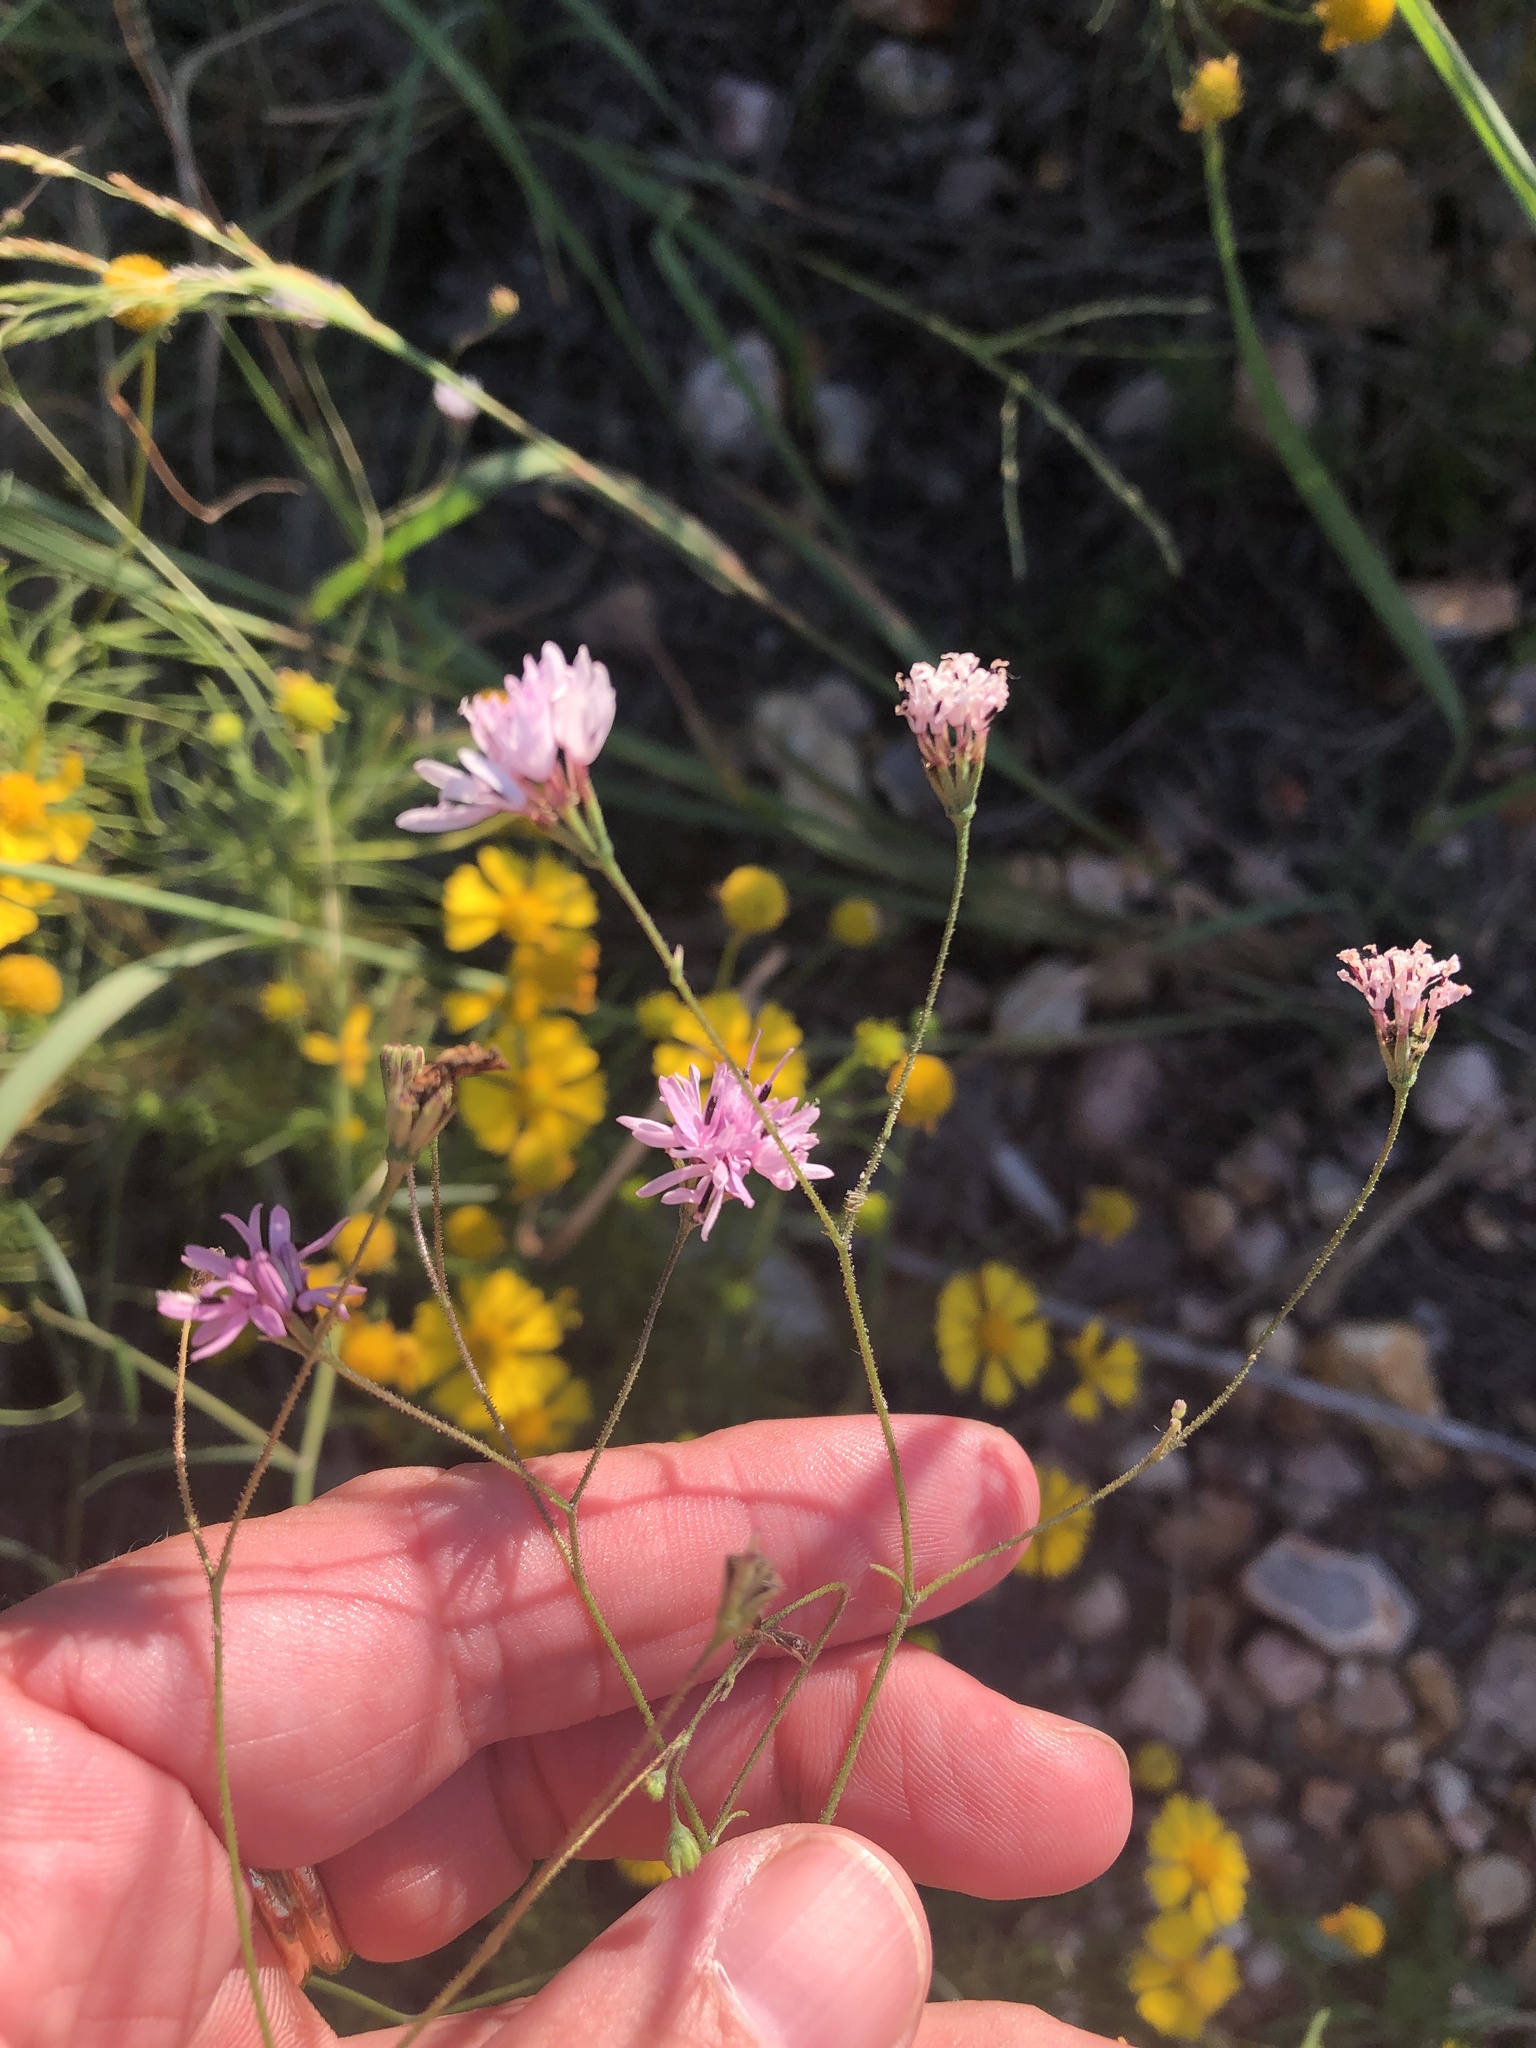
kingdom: Plantae
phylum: Tracheophyta
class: Magnoliopsida
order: Asterales
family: Asteraceae
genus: Palafoxia
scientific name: Palafoxia callosa
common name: Small palafox
